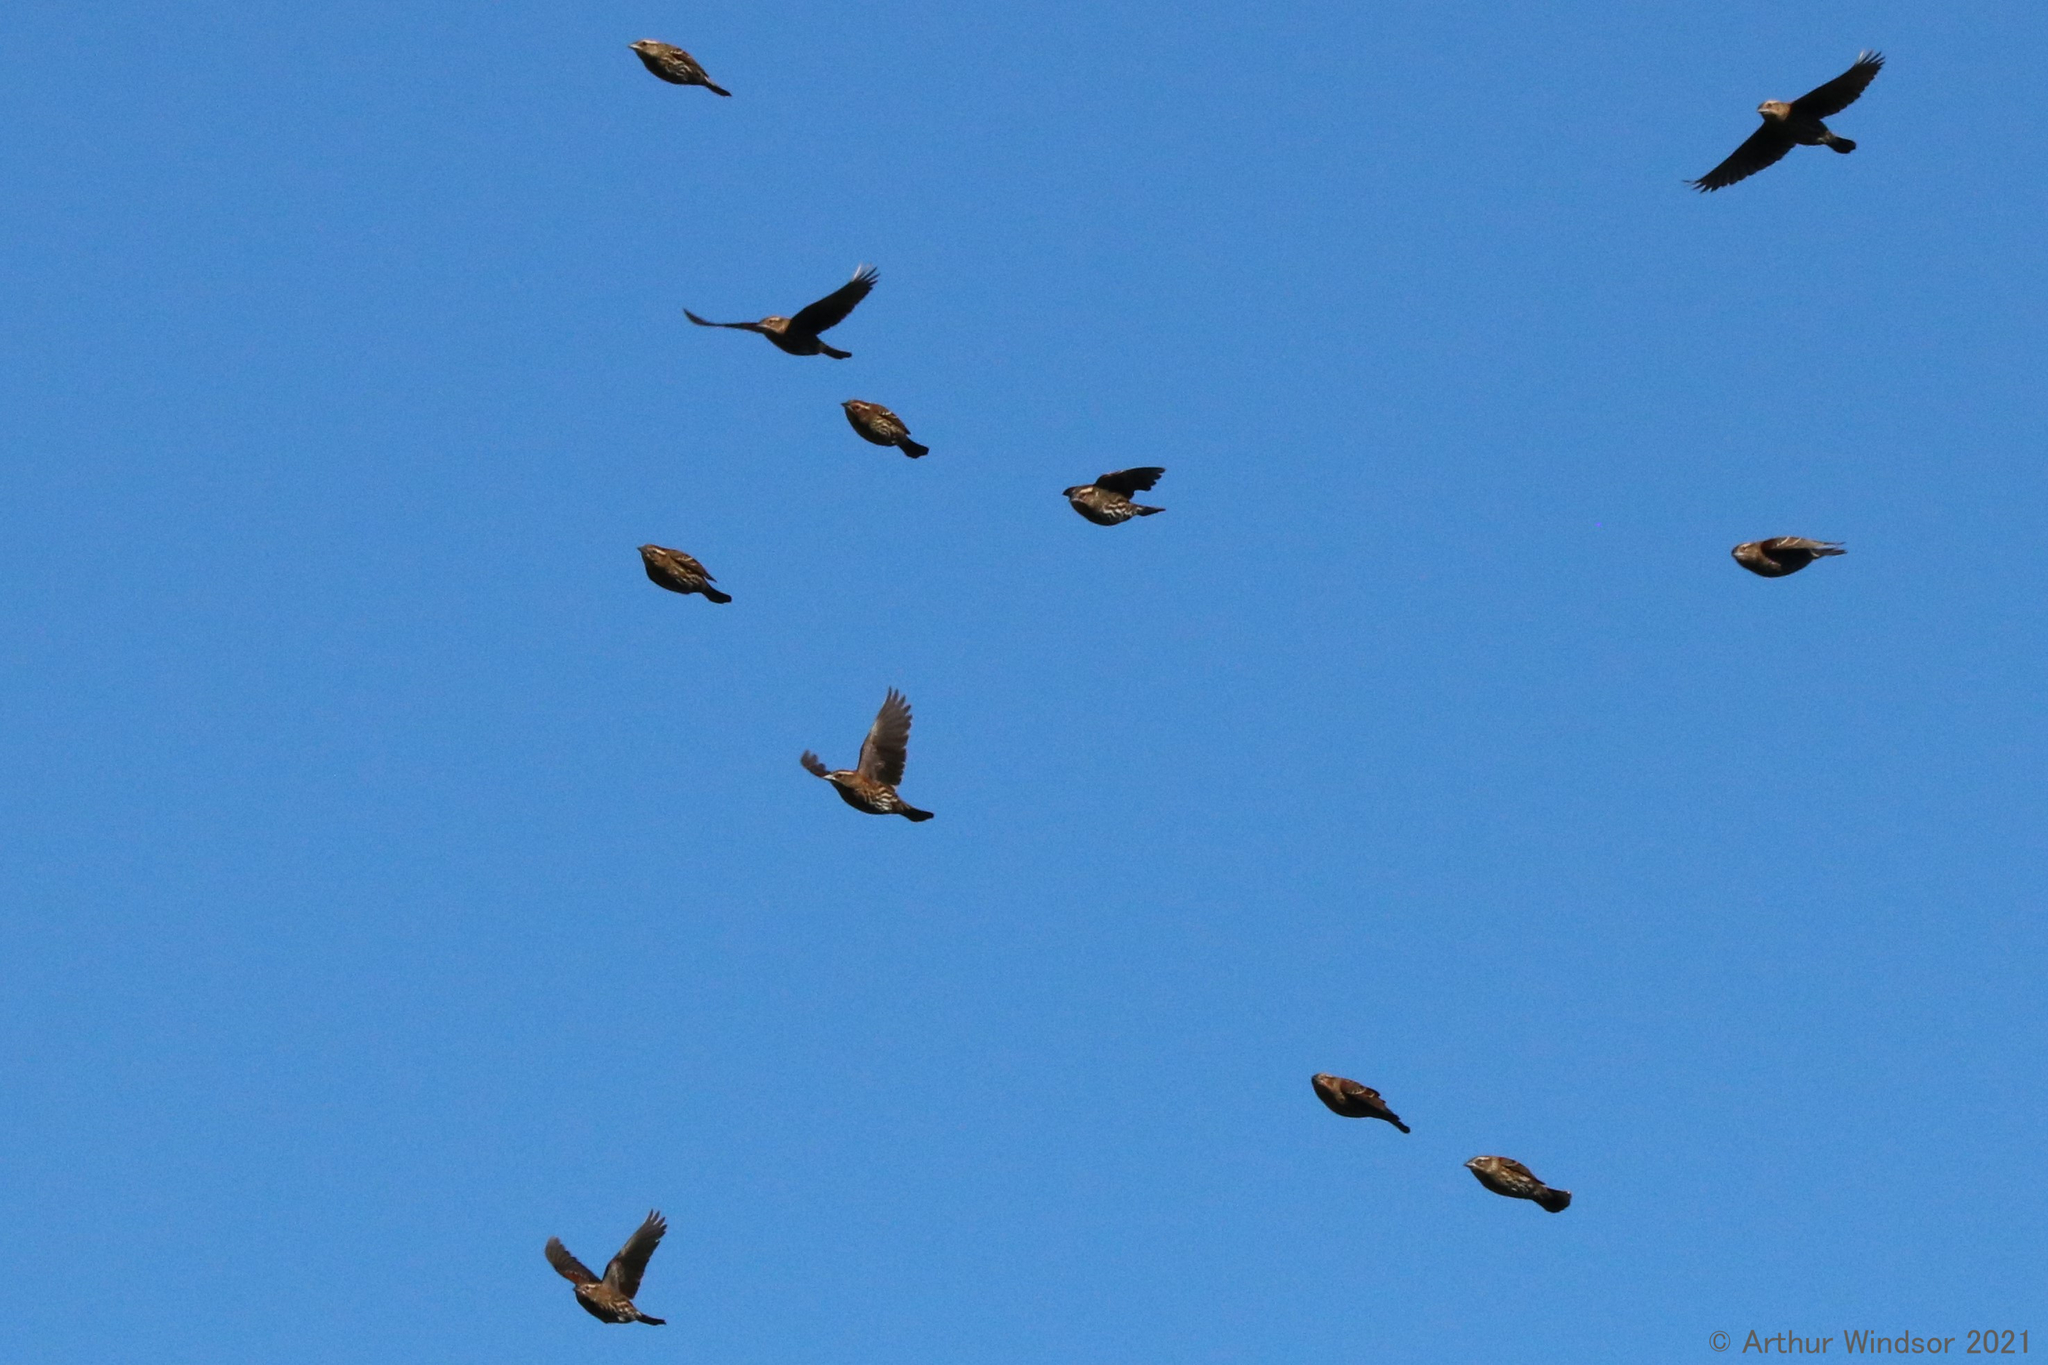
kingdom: Animalia
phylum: Chordata
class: Aves
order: Passeriformes
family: Icteridae
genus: Agelaius
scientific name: Agelaius phoeniceus
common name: Red-winged blackbird
